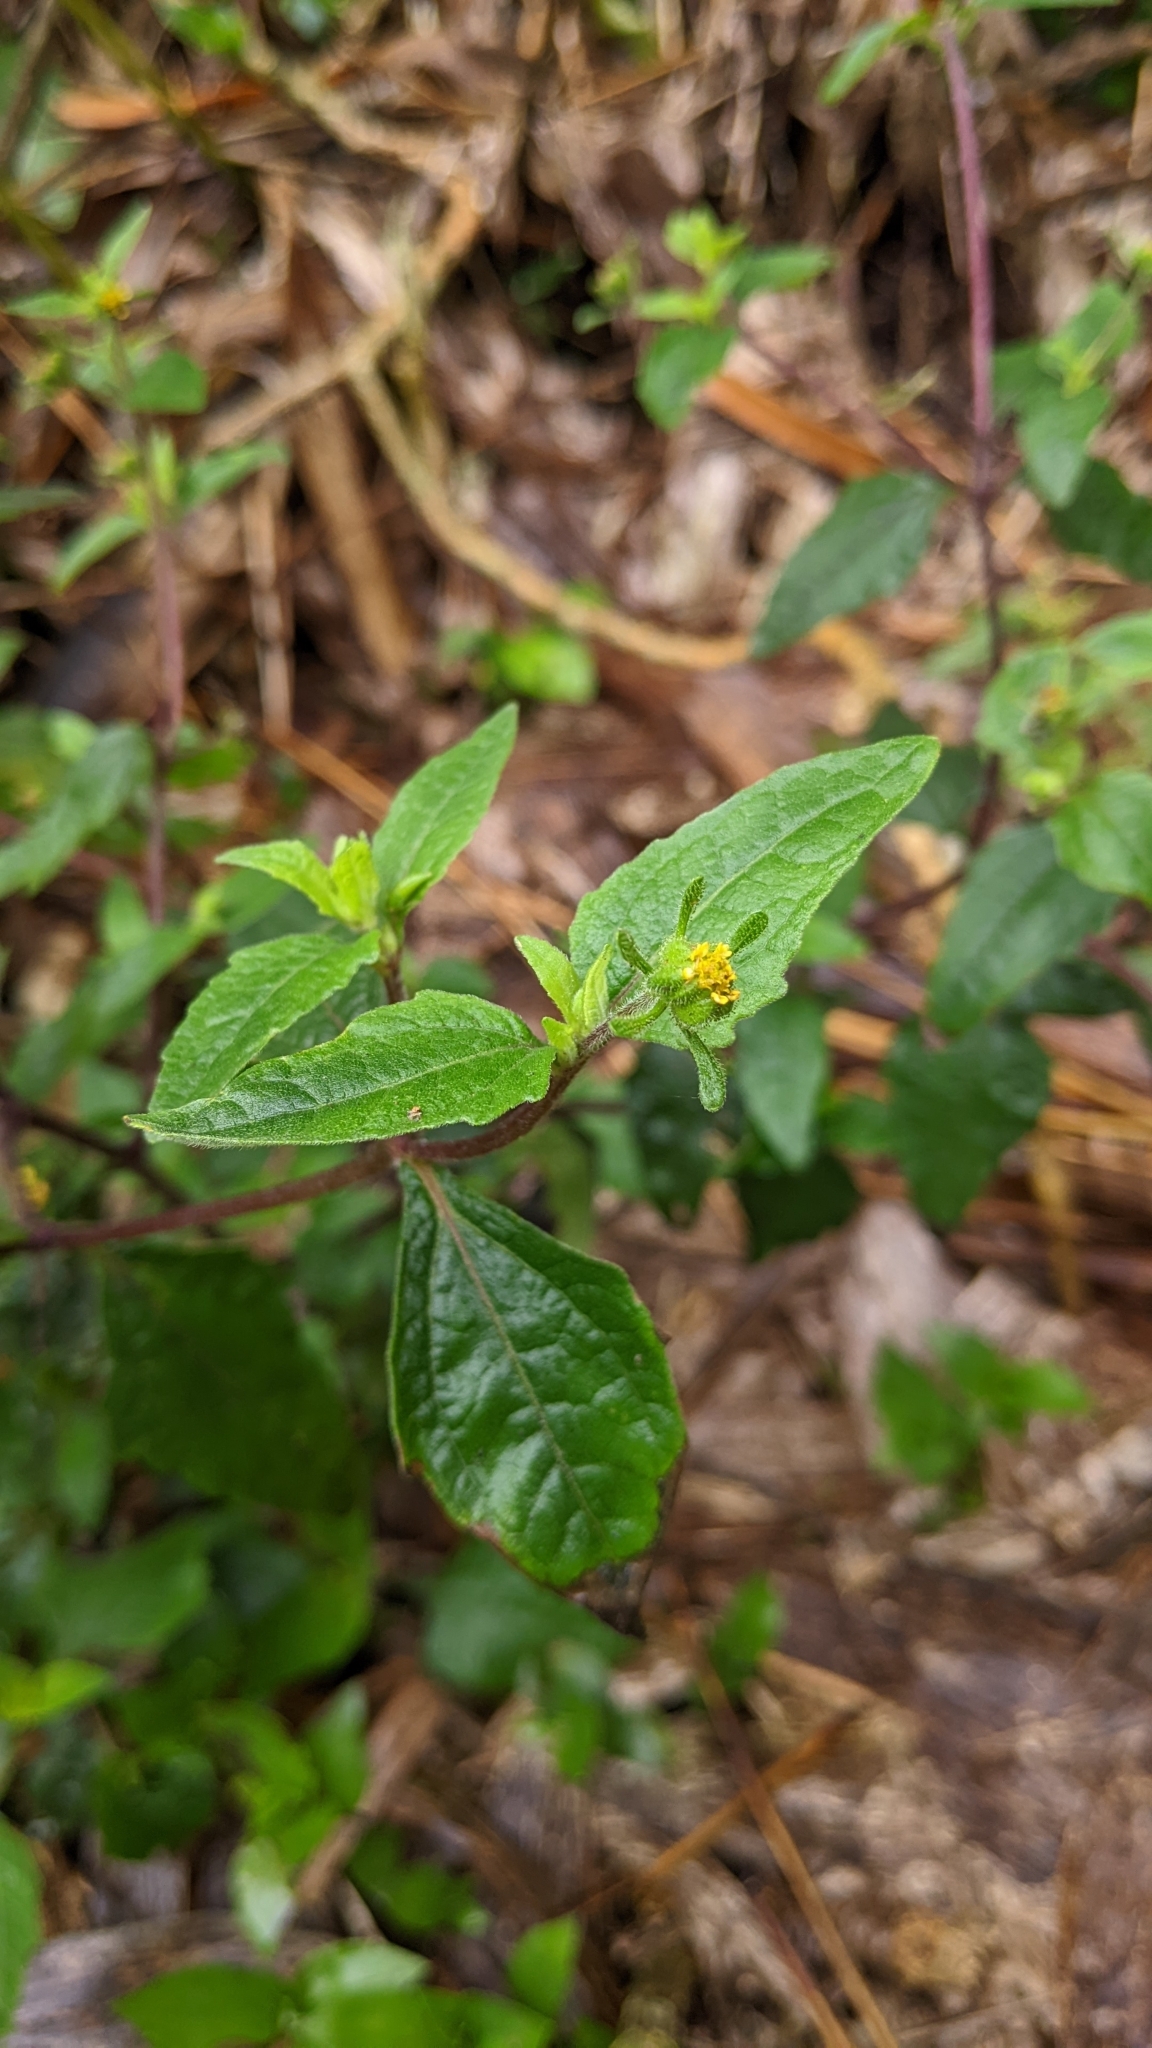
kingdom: Plantae
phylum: Tracheophyta
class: Magnoliopsida
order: Asterales
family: Asteraceae
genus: Sigesbeckia
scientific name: Sigesbeckia orientalis
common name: Eastern st paul's-wort
